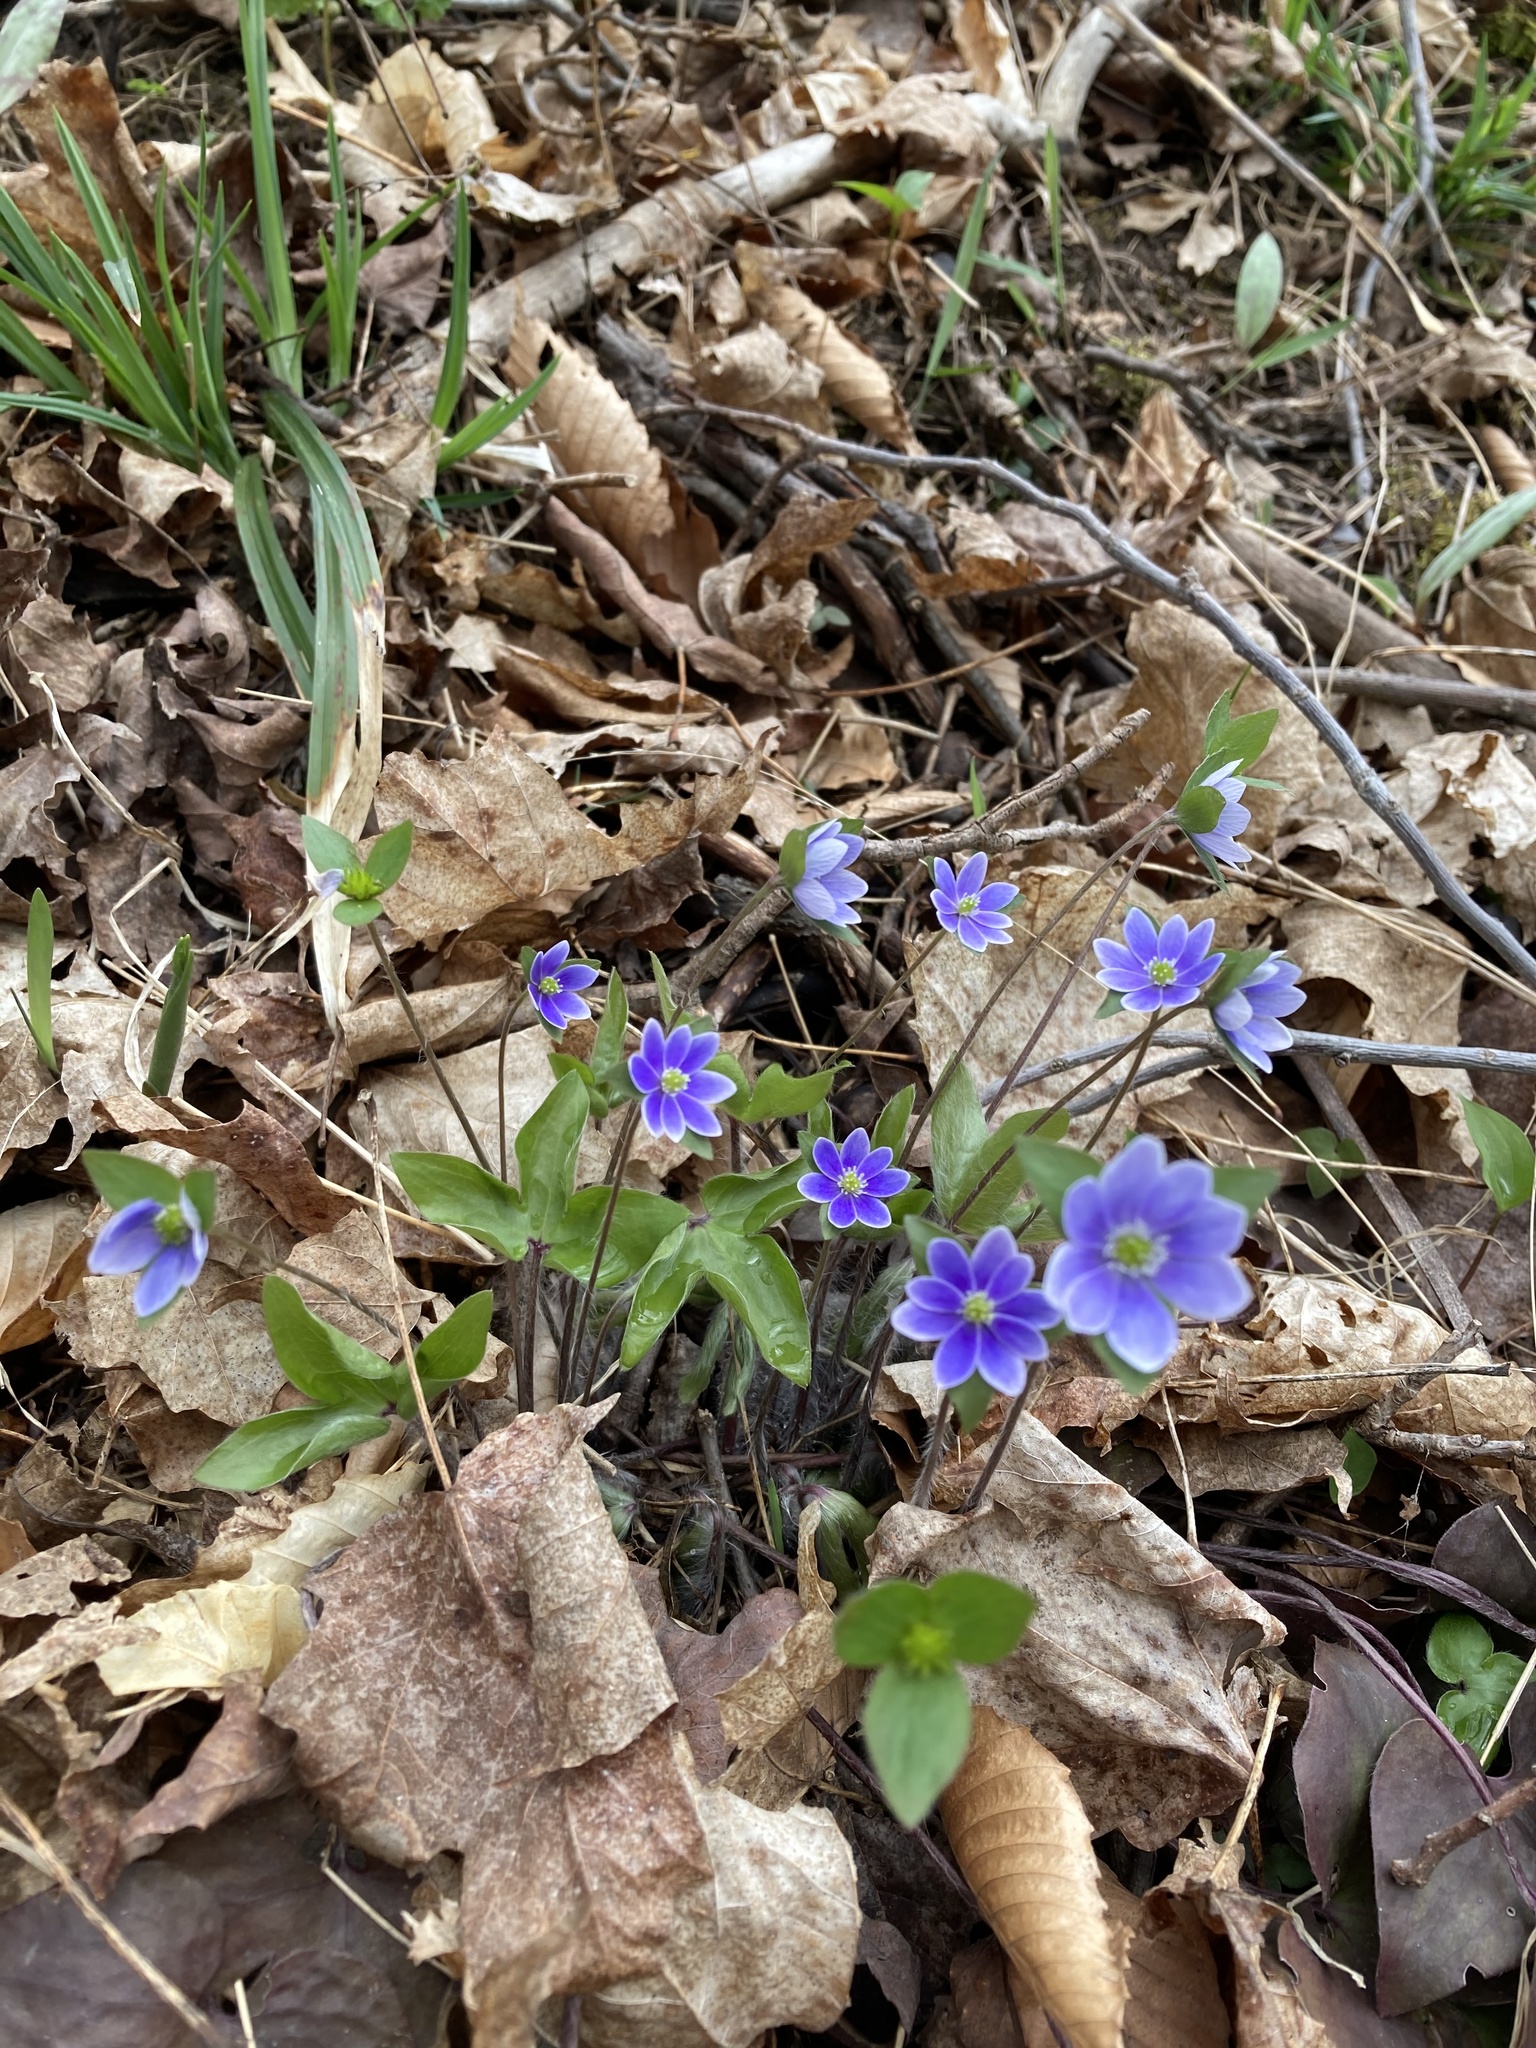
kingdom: Plantae
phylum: Tracheophyta
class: Magnoliopsida
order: Ranunculales
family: Ranunculaceae
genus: Hepatica
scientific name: Hepatica acutiloba
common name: Sharp-lobed hepatica
